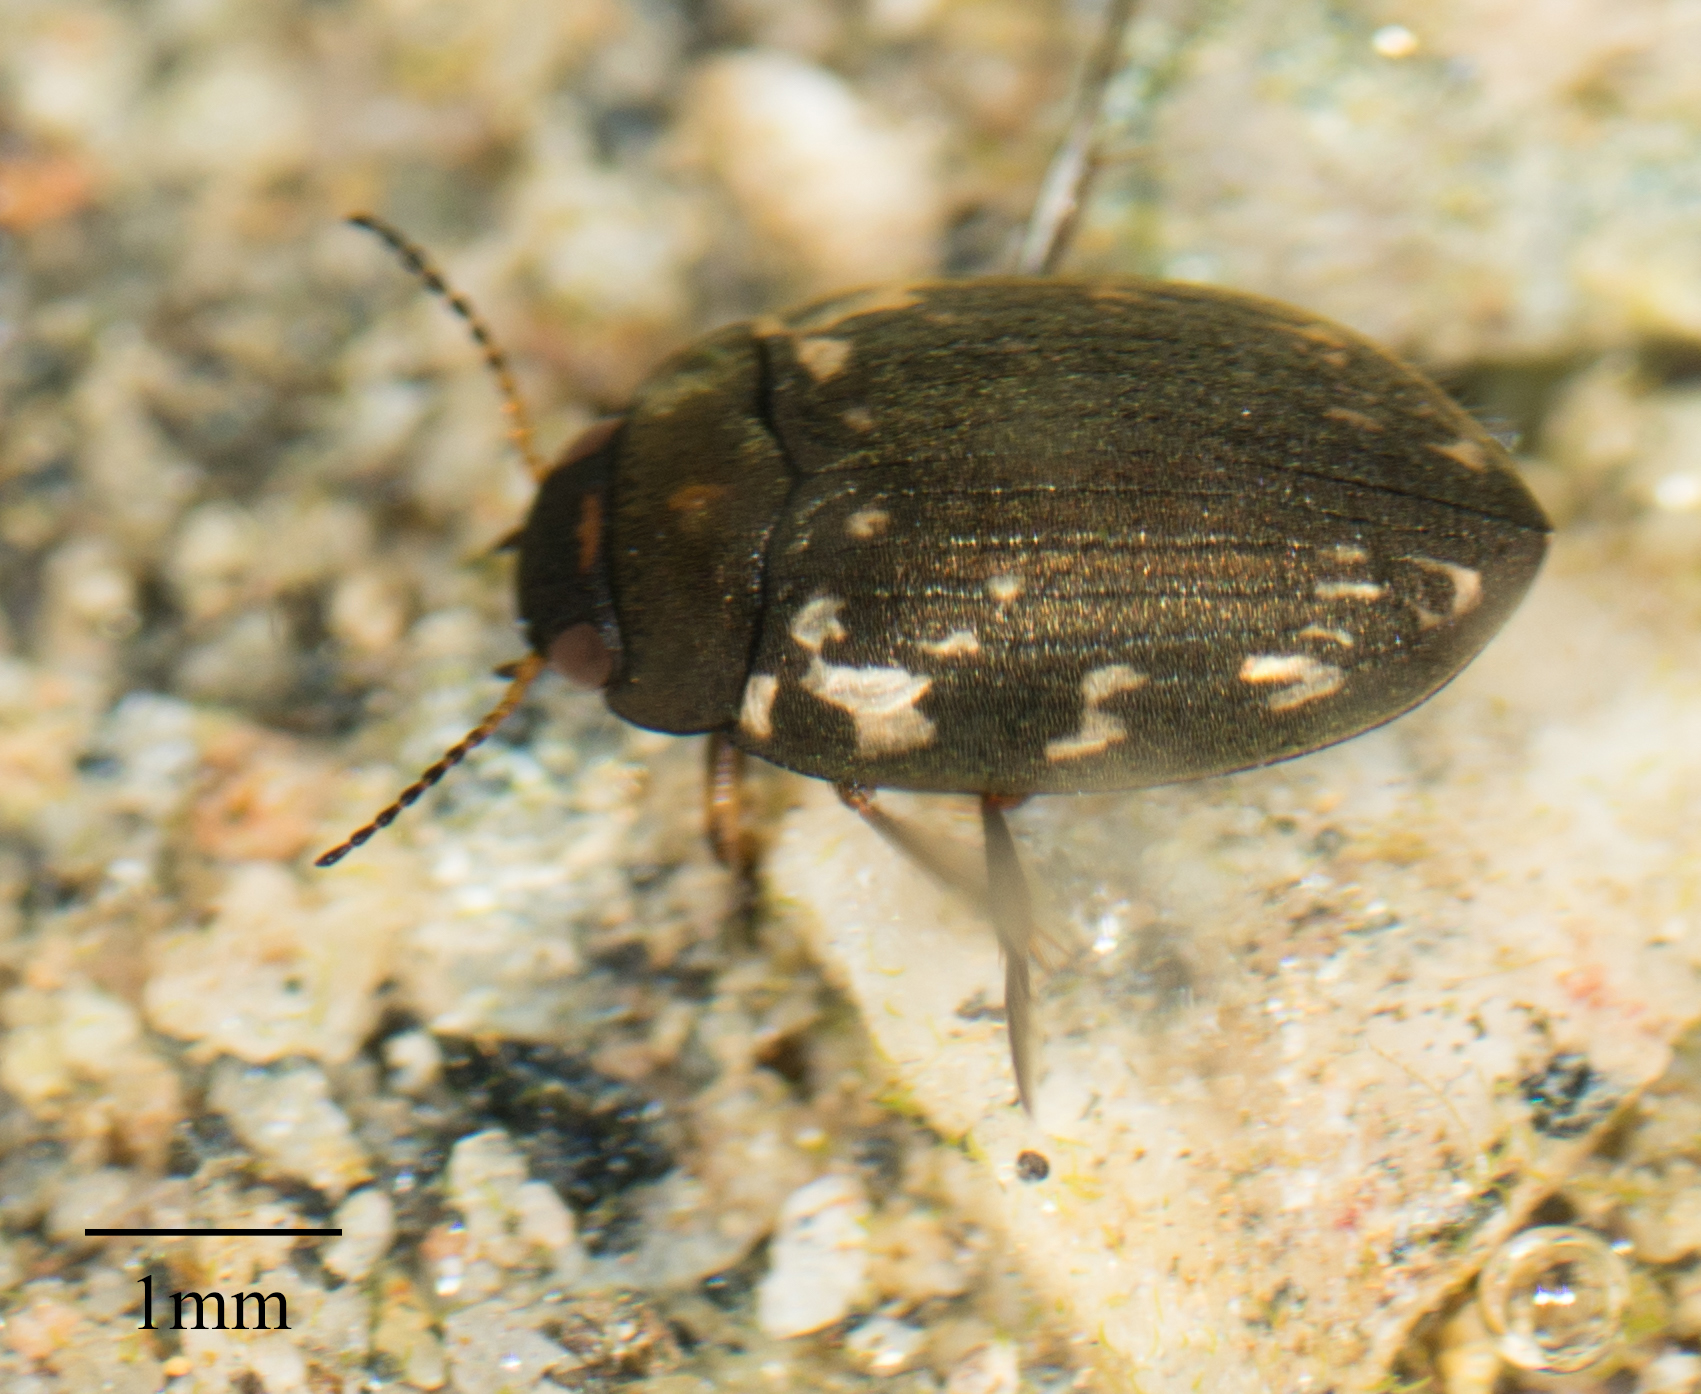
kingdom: Animalia
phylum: Arthropoda
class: Insecta
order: Coleoptera
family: Dytiscidae
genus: Leconectes
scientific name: Leconectes striatellus
